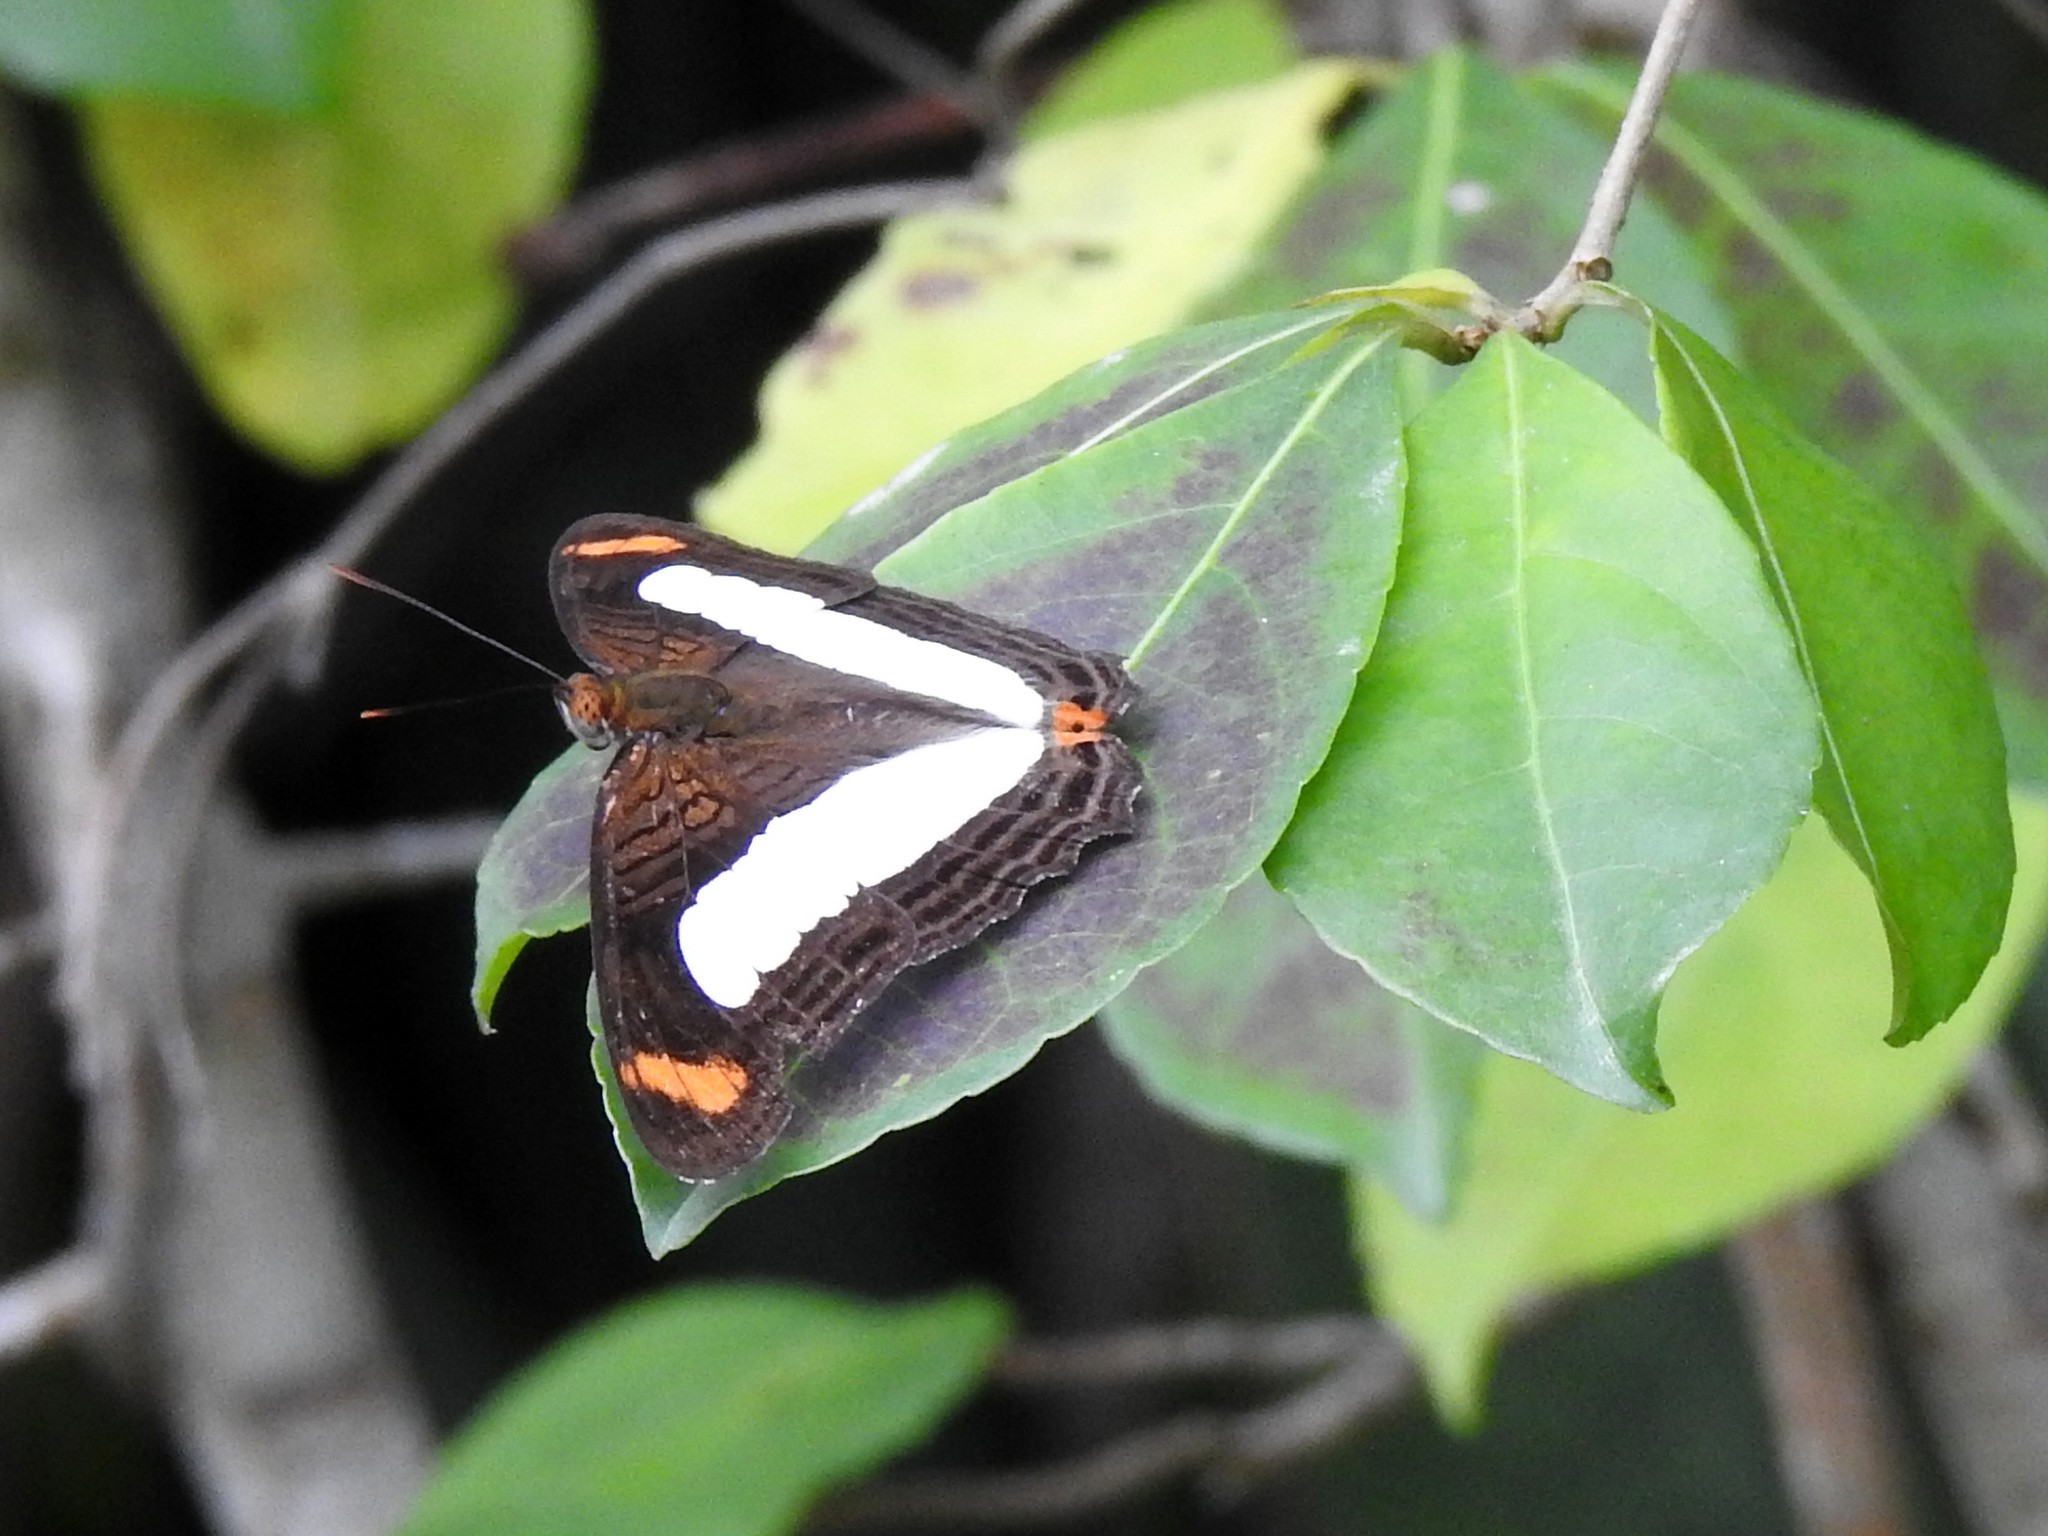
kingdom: Animalia
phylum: Arthropoda
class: Insecta
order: Lepidoptera
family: Nymphalidae
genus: Limenitis
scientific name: Limenitis iphiclus
